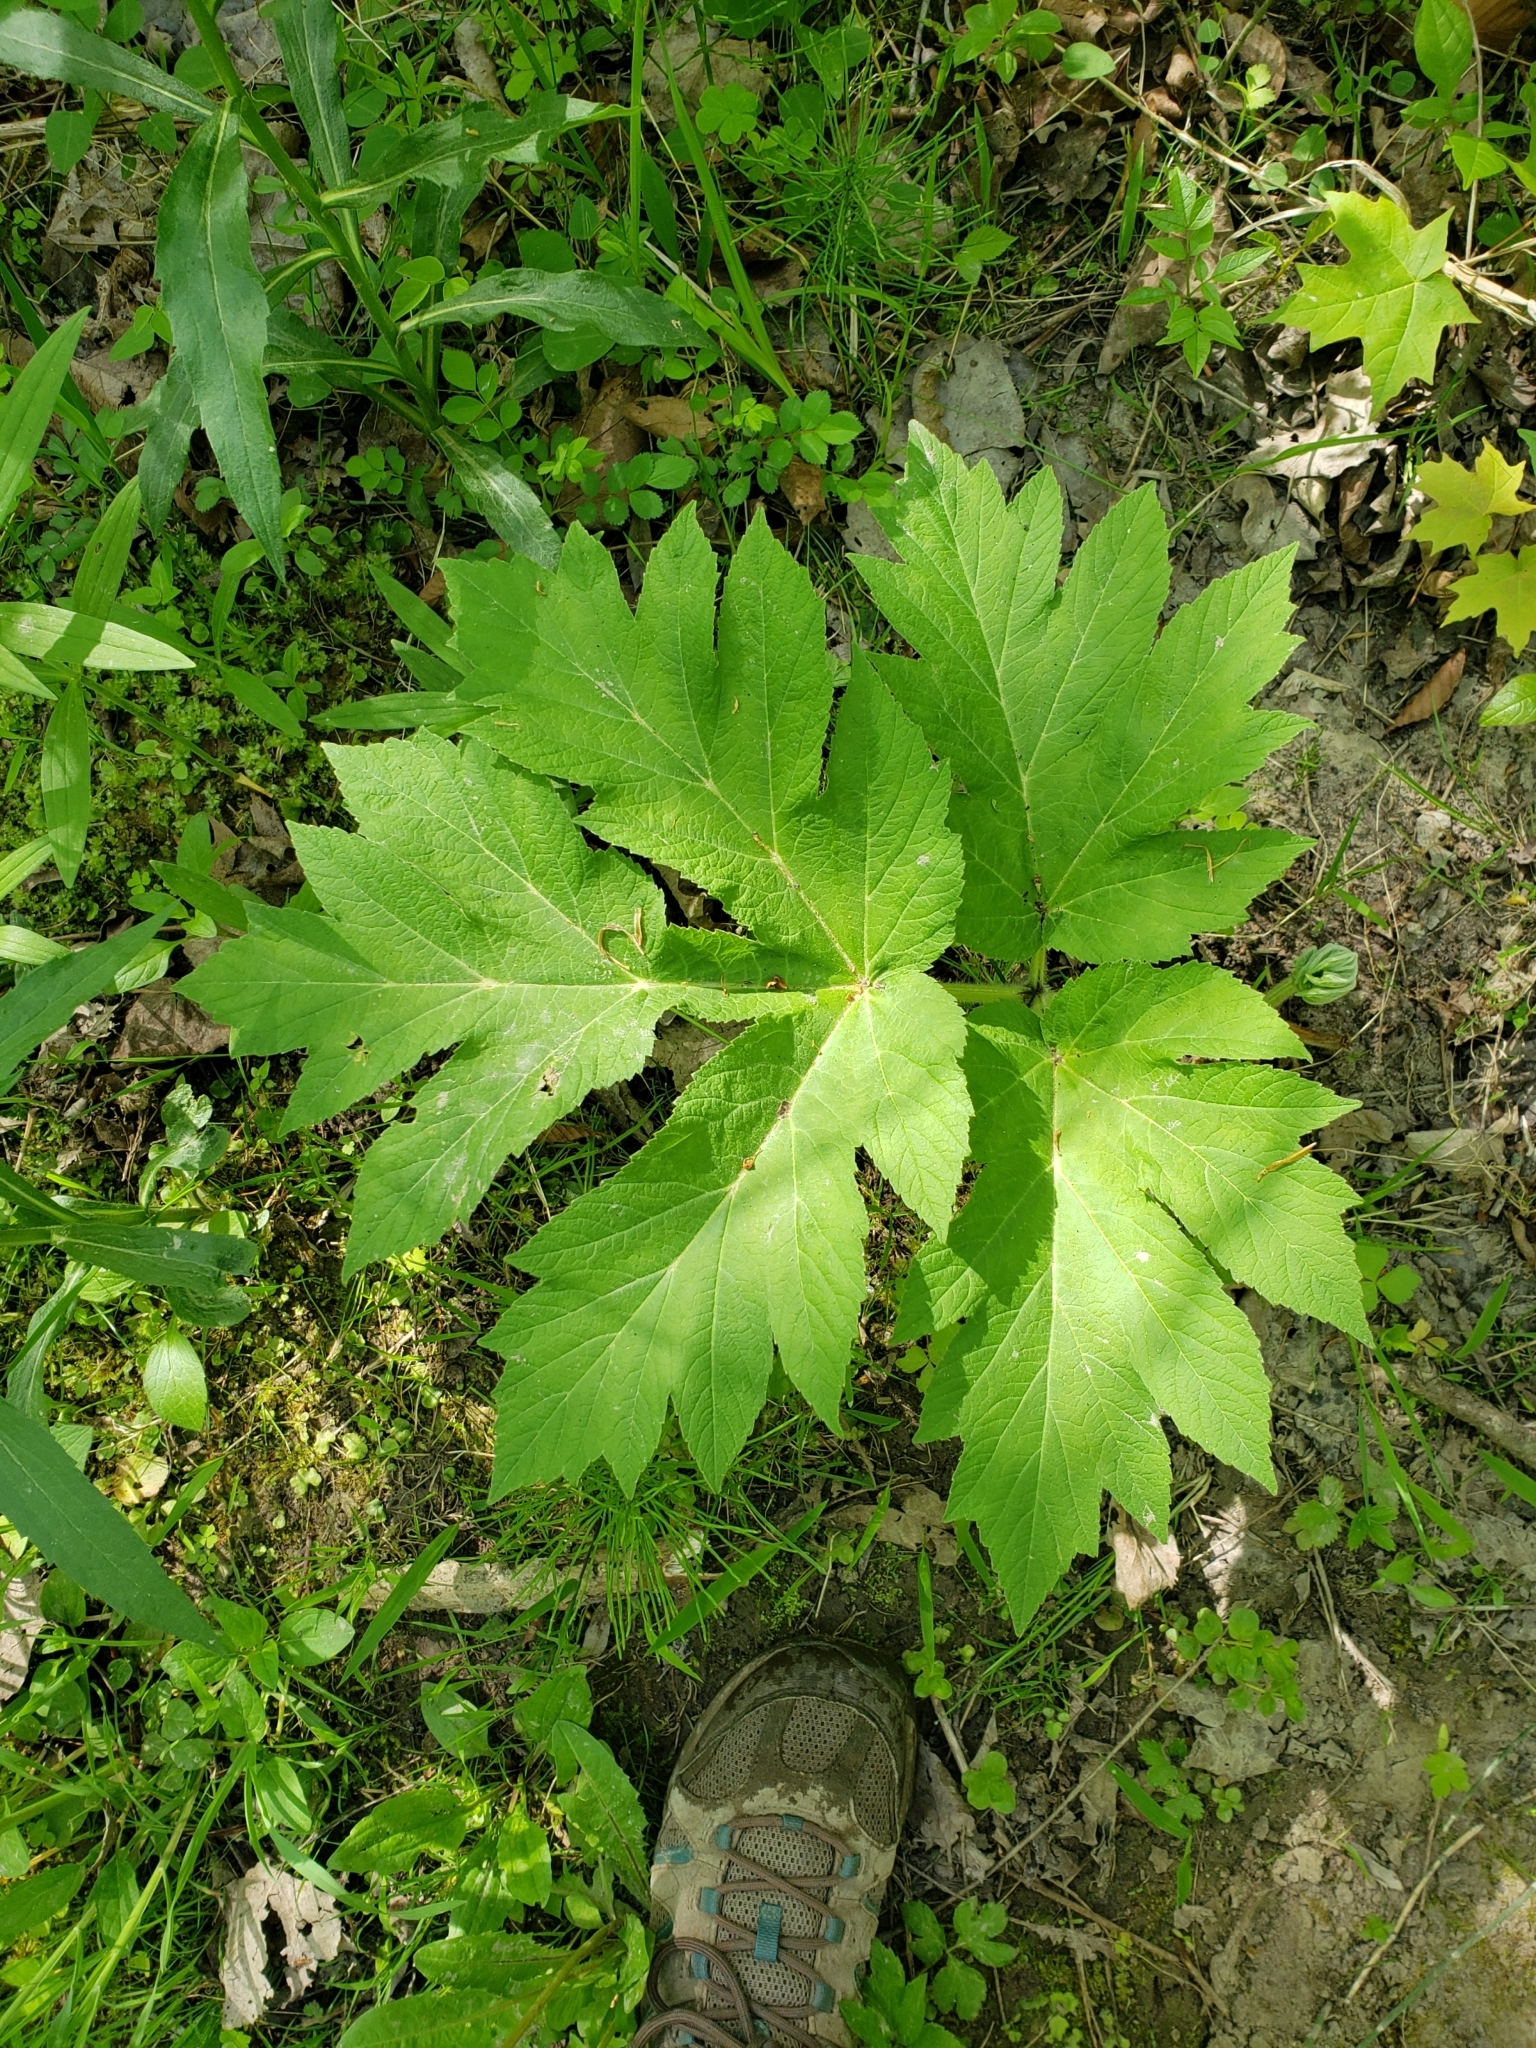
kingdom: Plantae
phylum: Tracheophyta
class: Magnoliopsida
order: Apiales
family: Apiaceae
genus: Heracleum
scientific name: Heracleum maximum
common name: American cow parsnip
